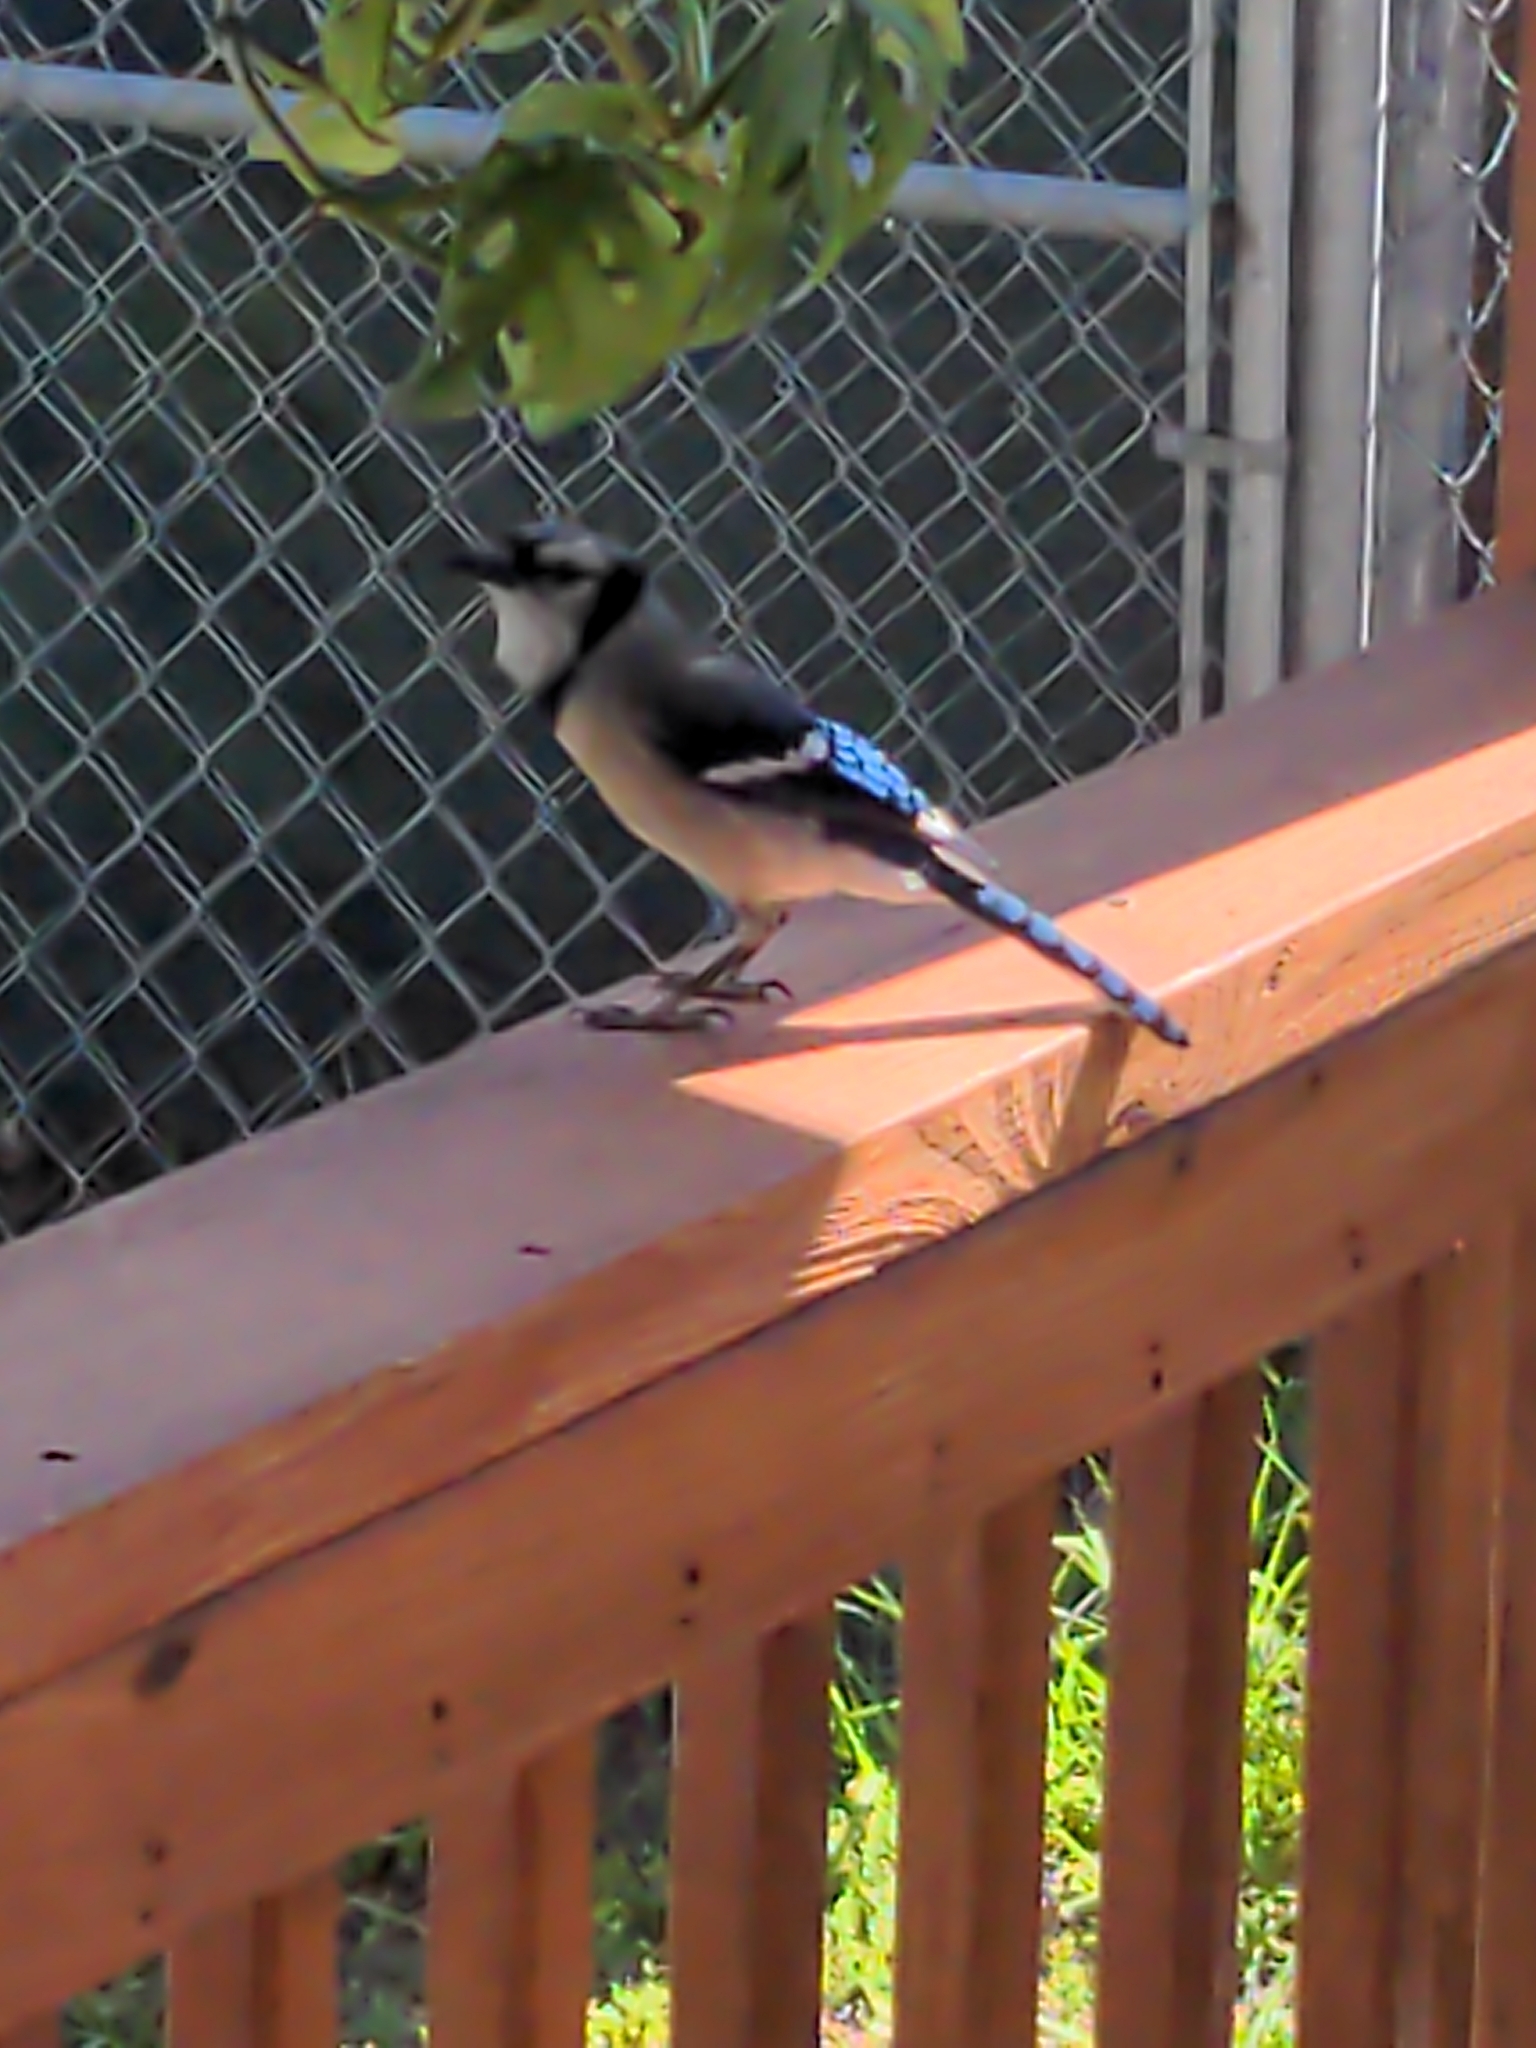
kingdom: Animalia
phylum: Chordata
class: Aves
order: Passeriformes
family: Corvidae
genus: Cyanocitta
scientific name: Cyanocitta cristata
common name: Blue jay
